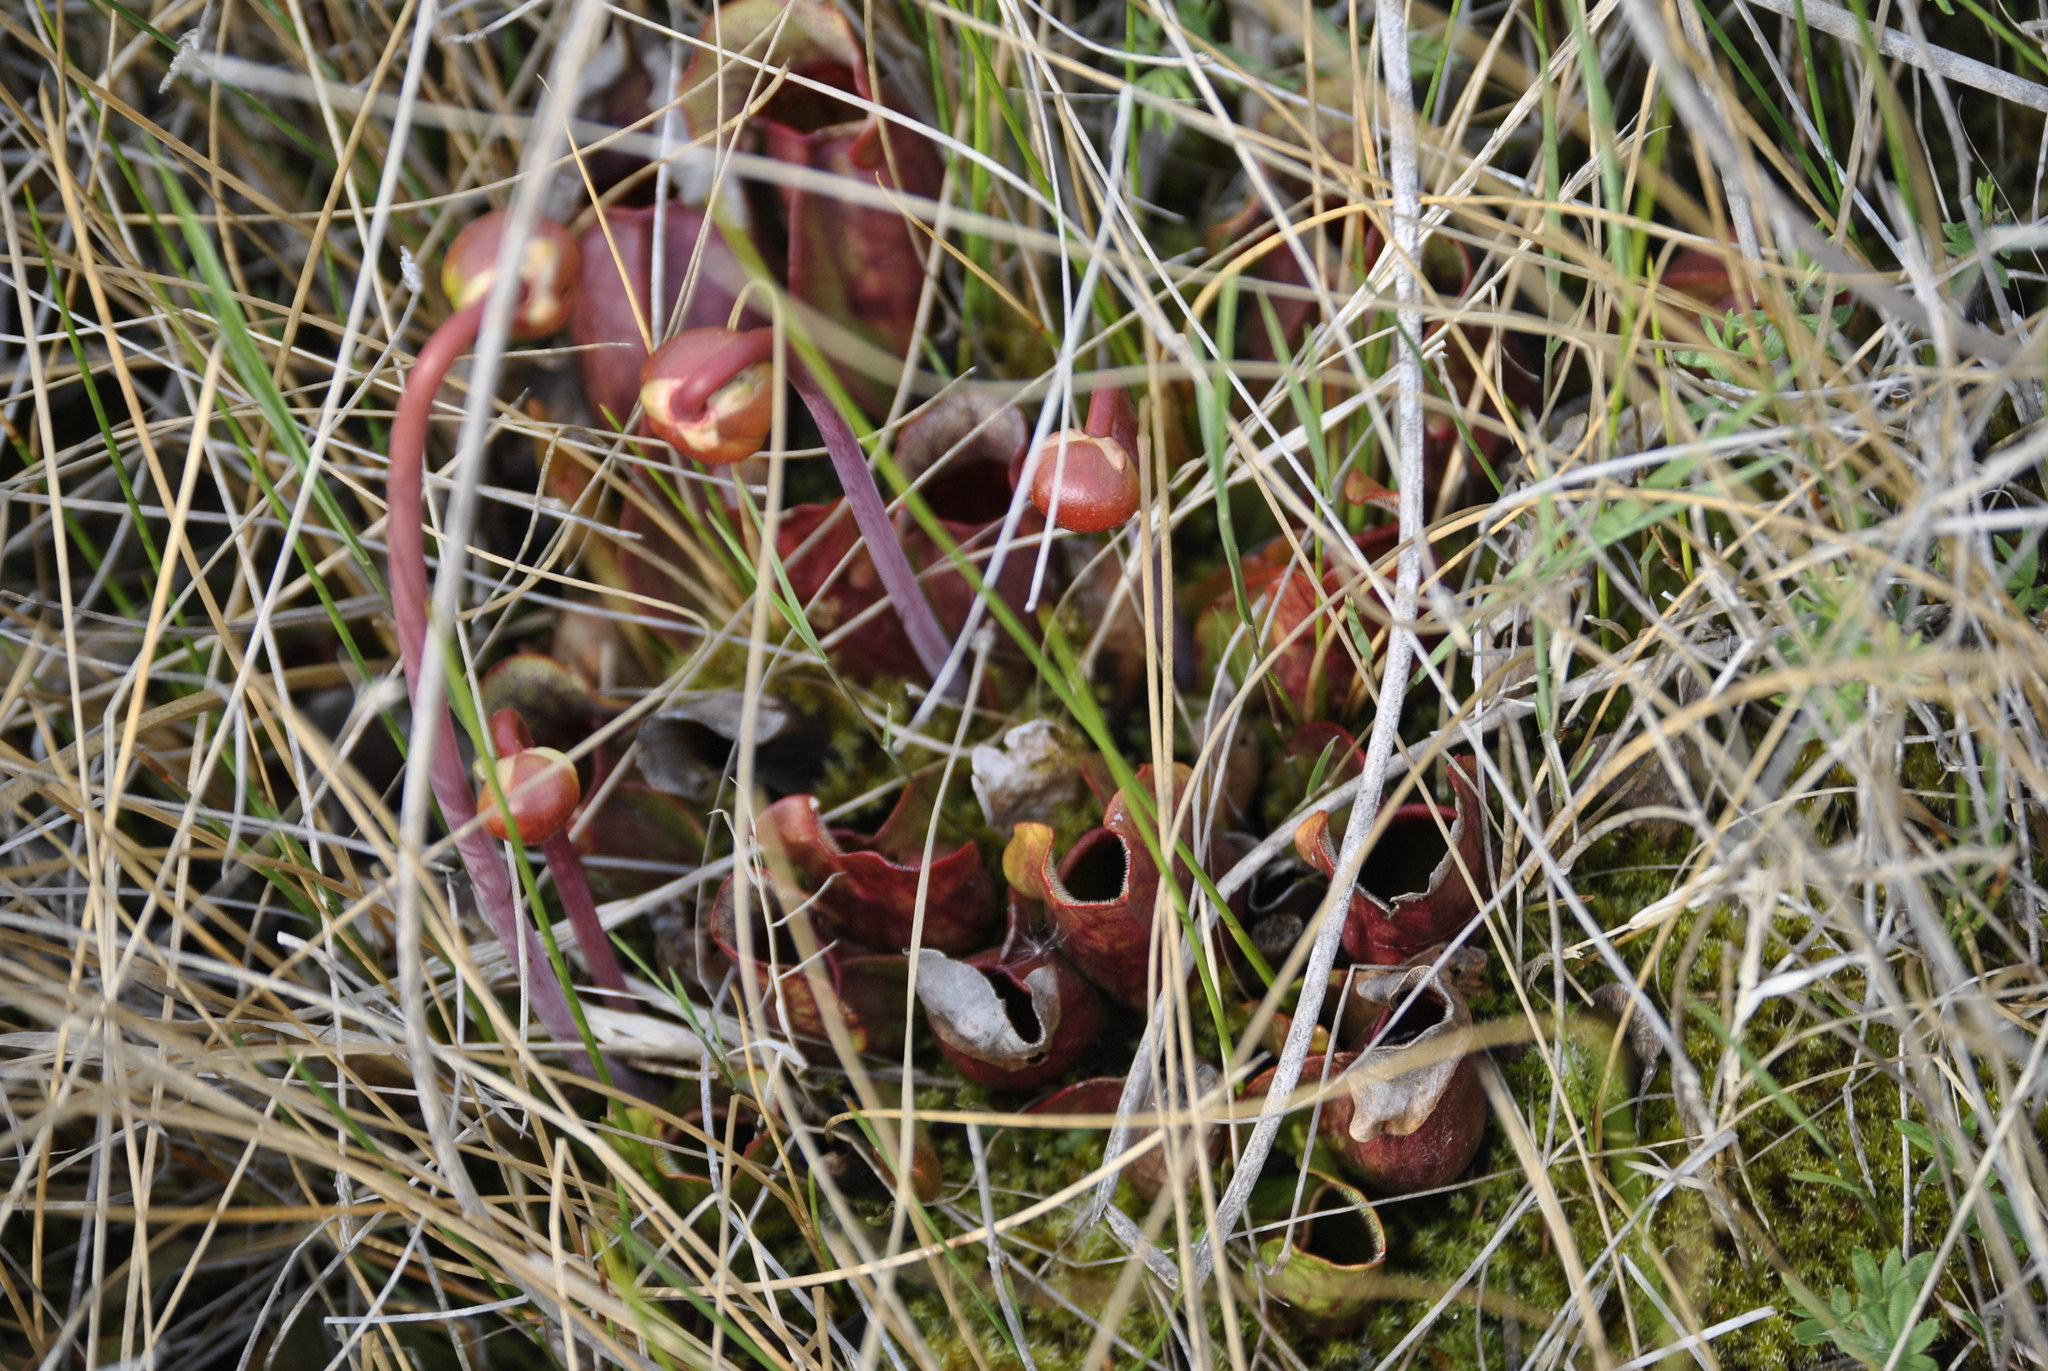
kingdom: Plantae
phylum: Tracheophyta
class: Magnoliopsida
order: Ericales
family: Sarraceniaceae
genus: Sarracenia
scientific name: Sarracenia purpurea
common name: Pitcherplant
